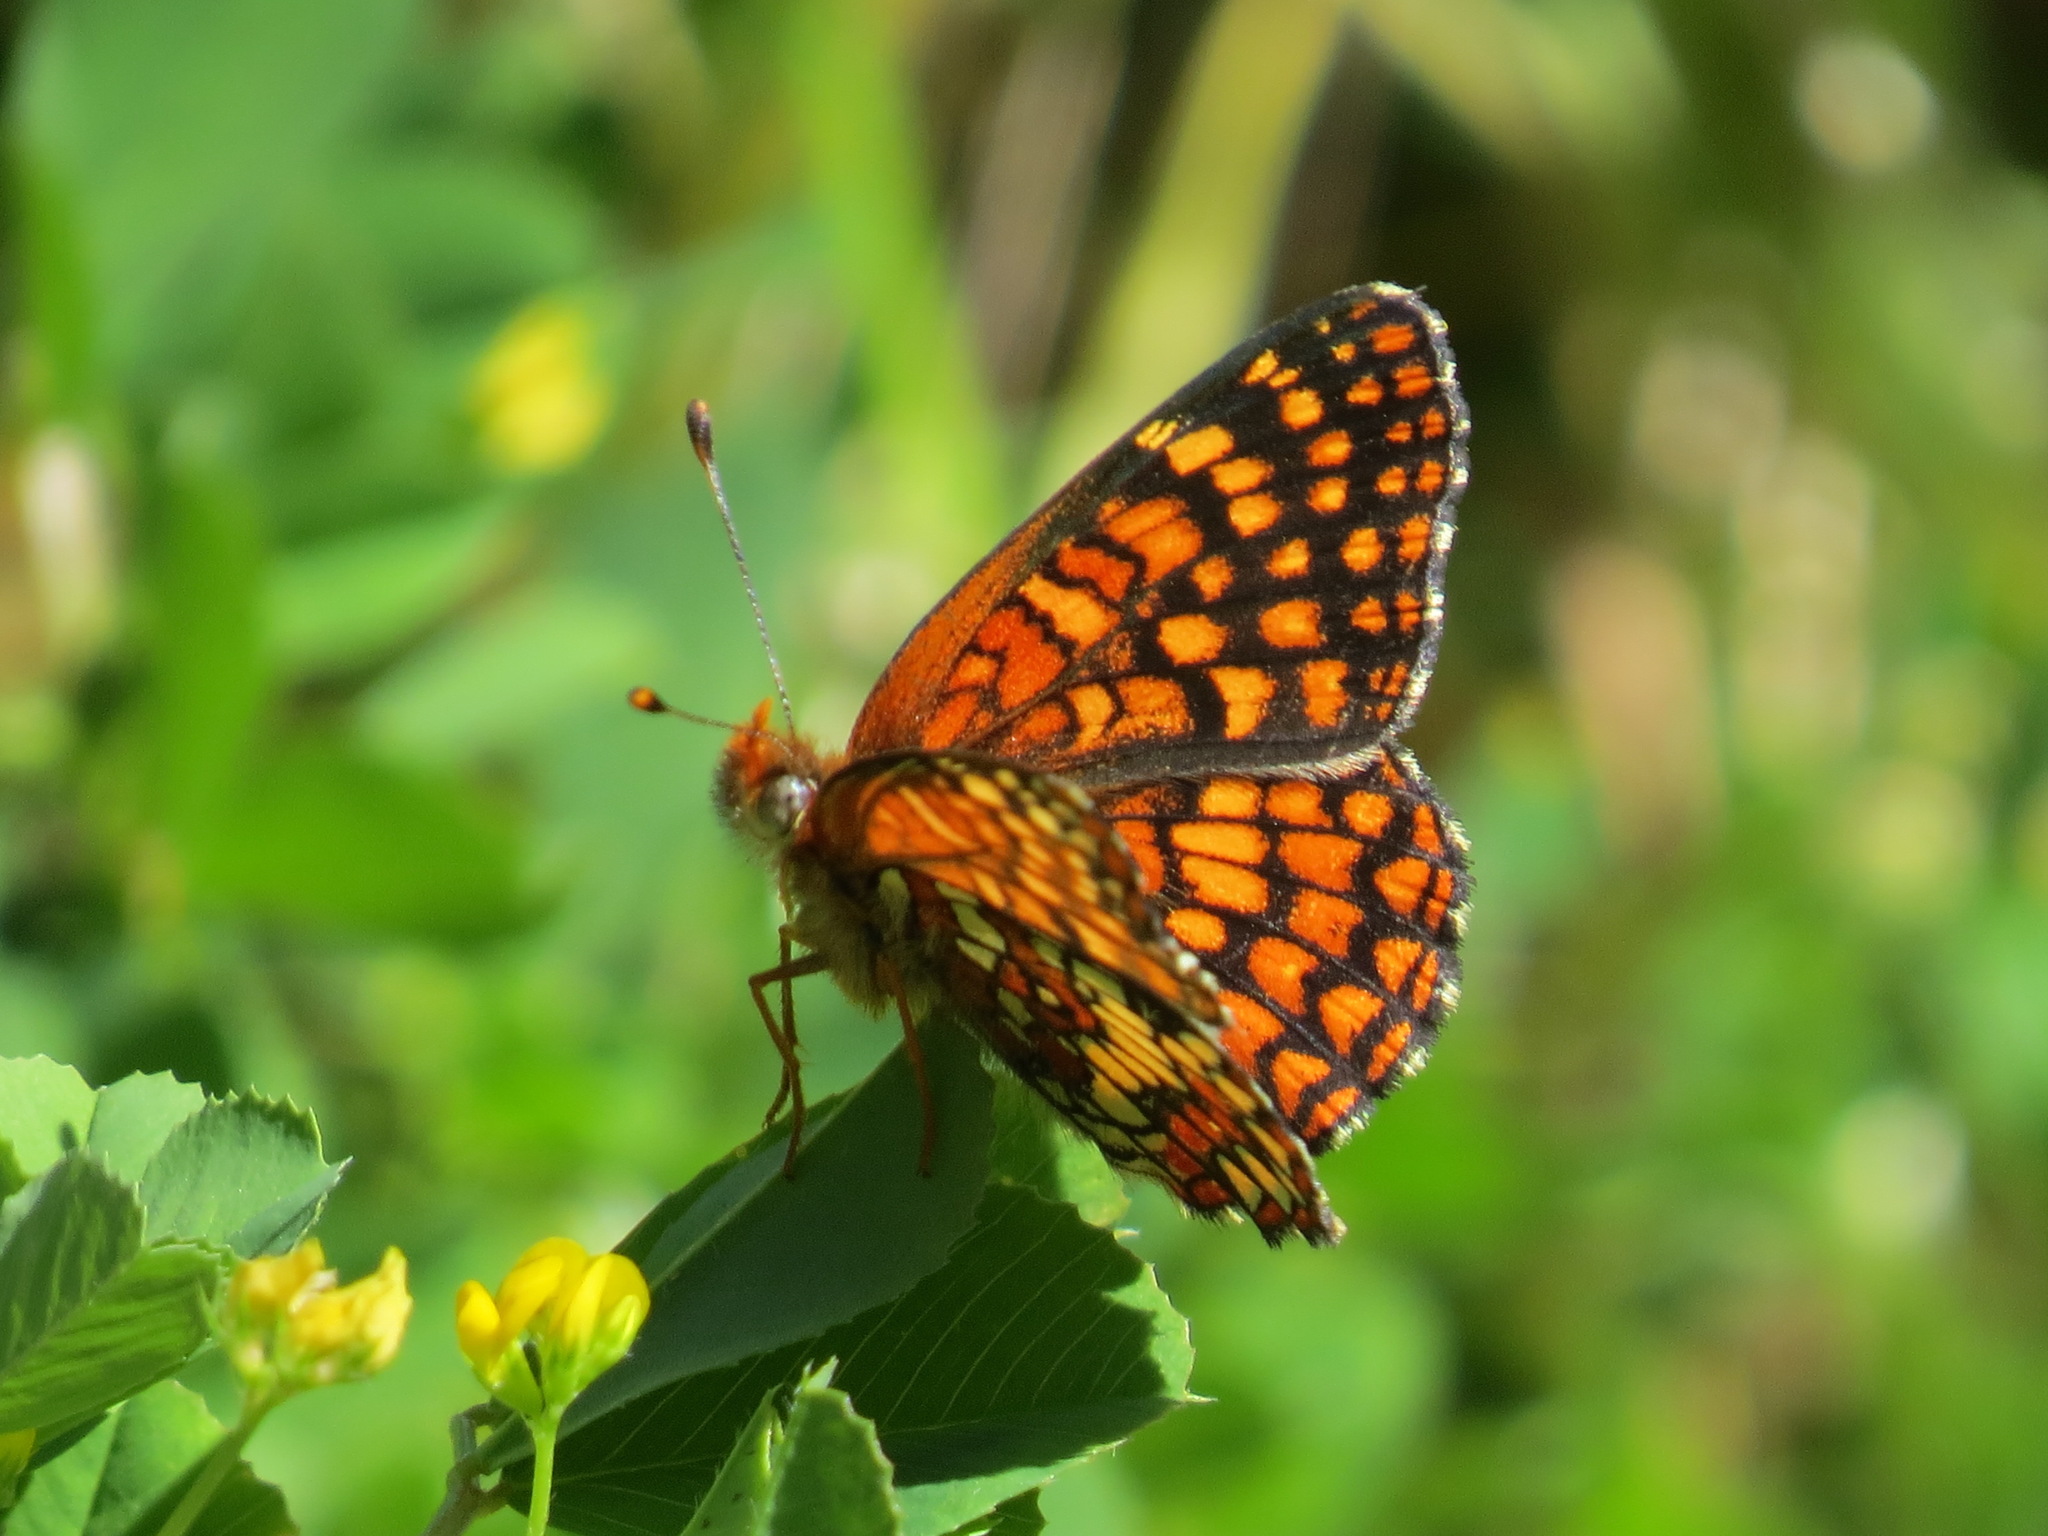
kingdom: Animalia
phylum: Arthropoda
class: Insecta
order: Lepidoptera
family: Nymphalidae
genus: Chlosyne
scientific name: Chlosyne palla
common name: Northern checkerspot
